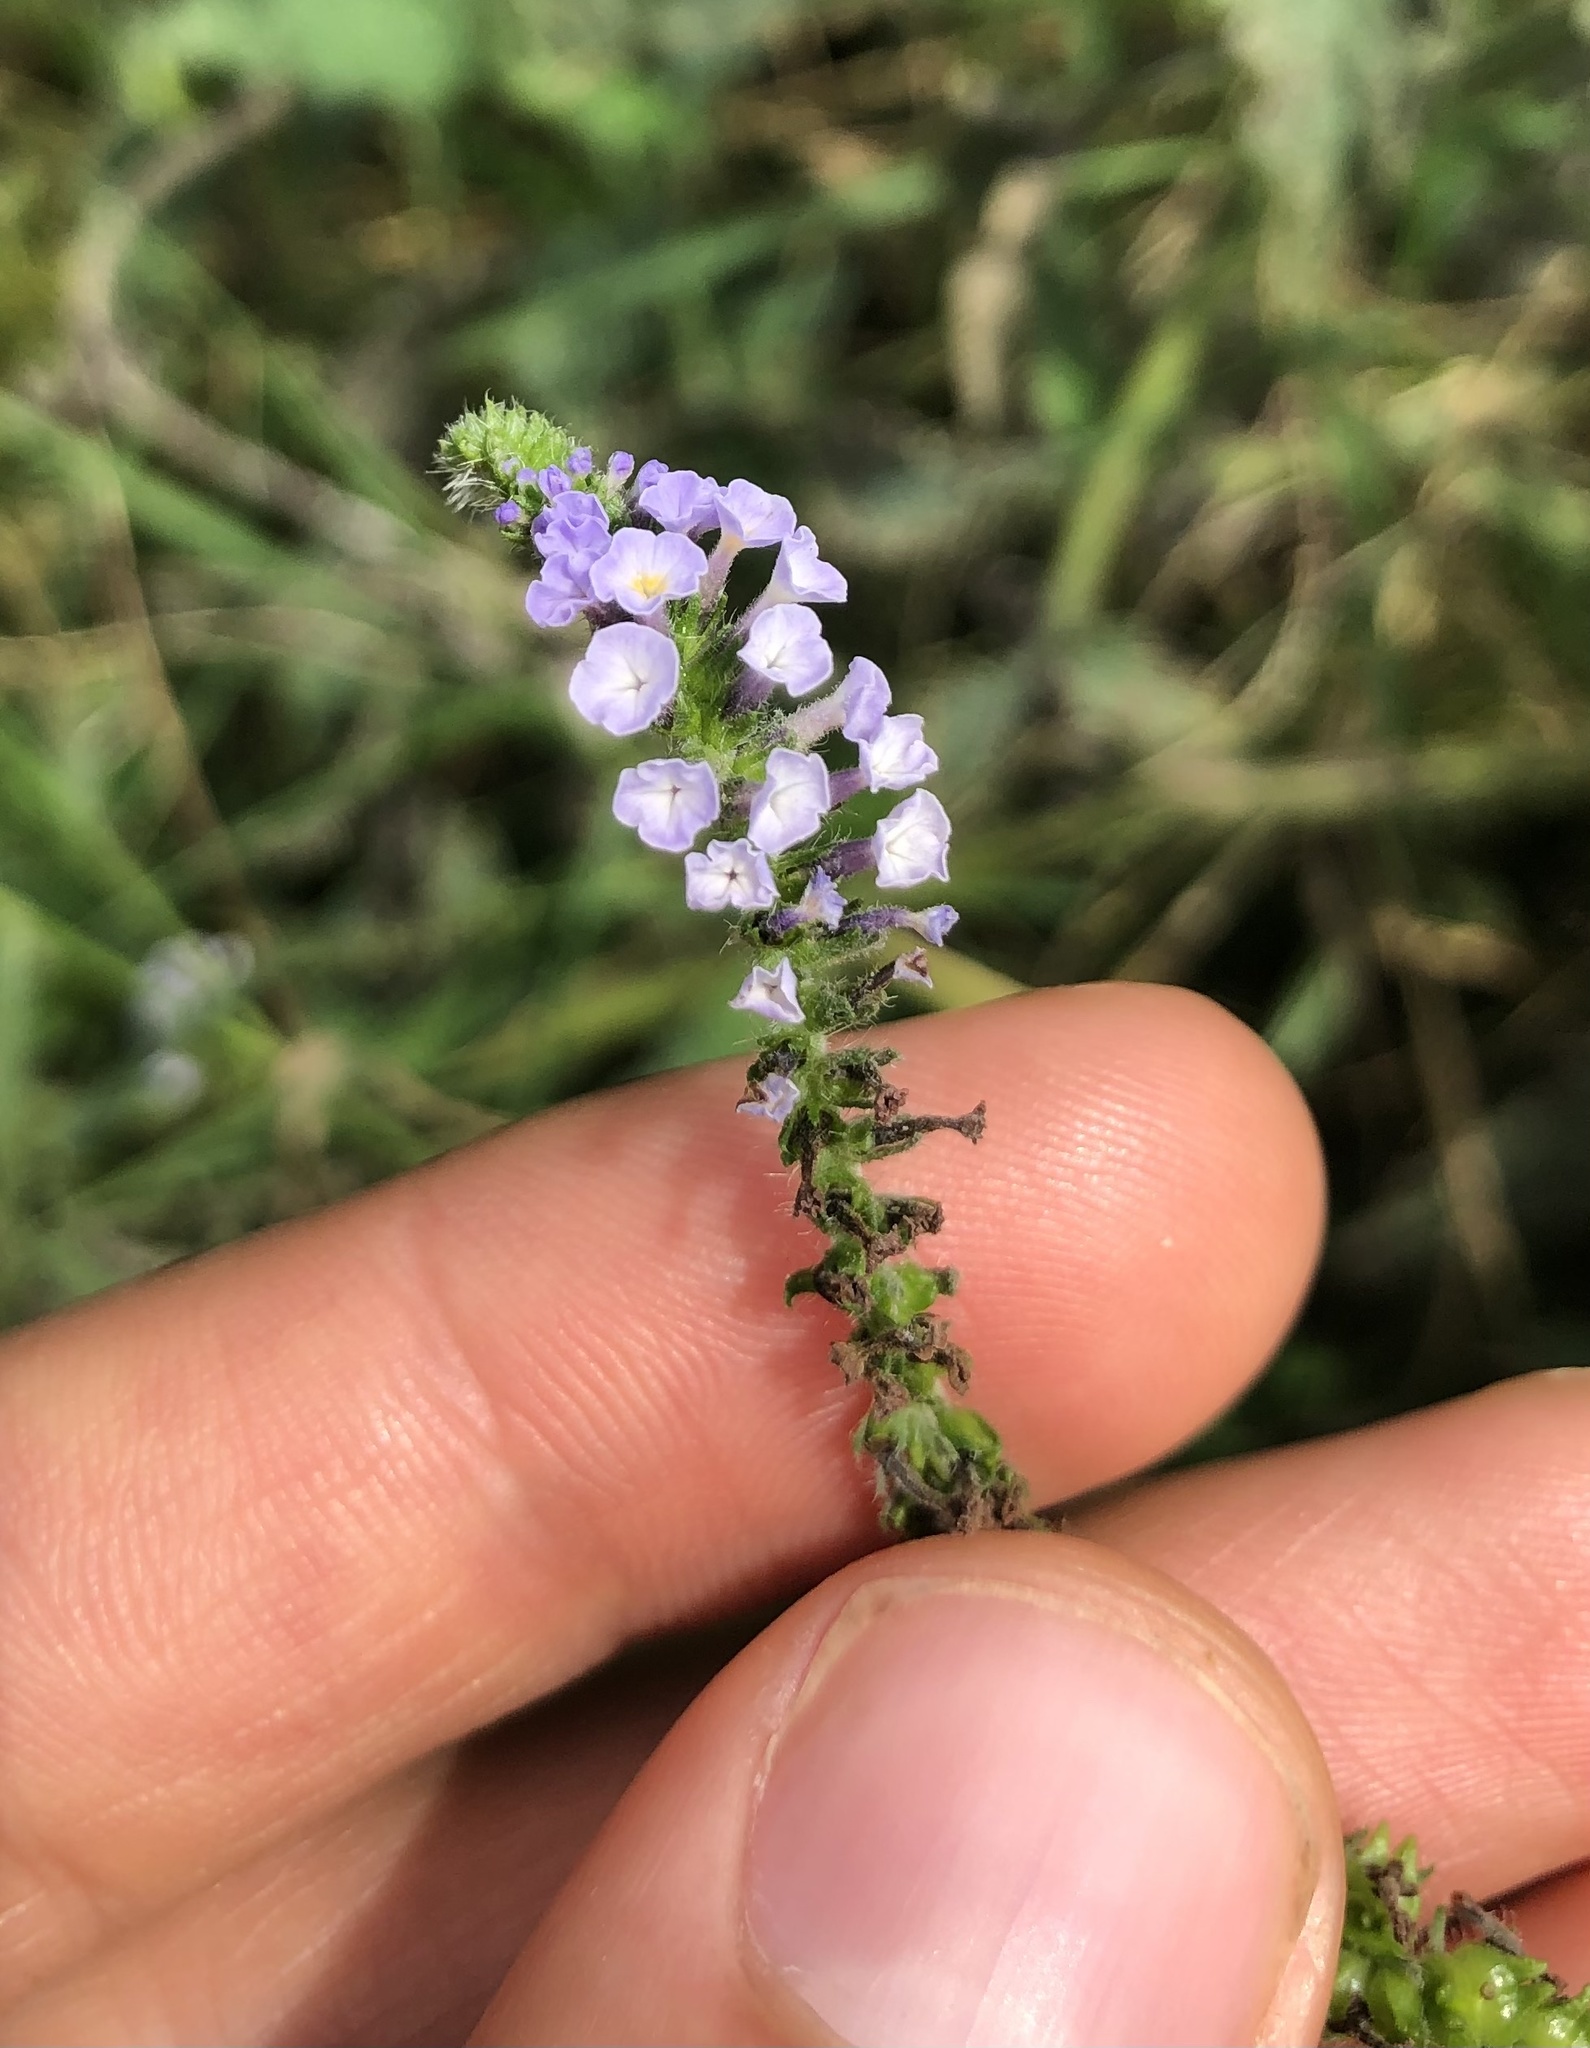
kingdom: Plantae
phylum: Tracheophyta
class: Magnoliopsida
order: Boraginales
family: Heliotropiaceae
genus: Heliotropium
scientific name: Heliotropium indicum
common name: Indian heliotrope
